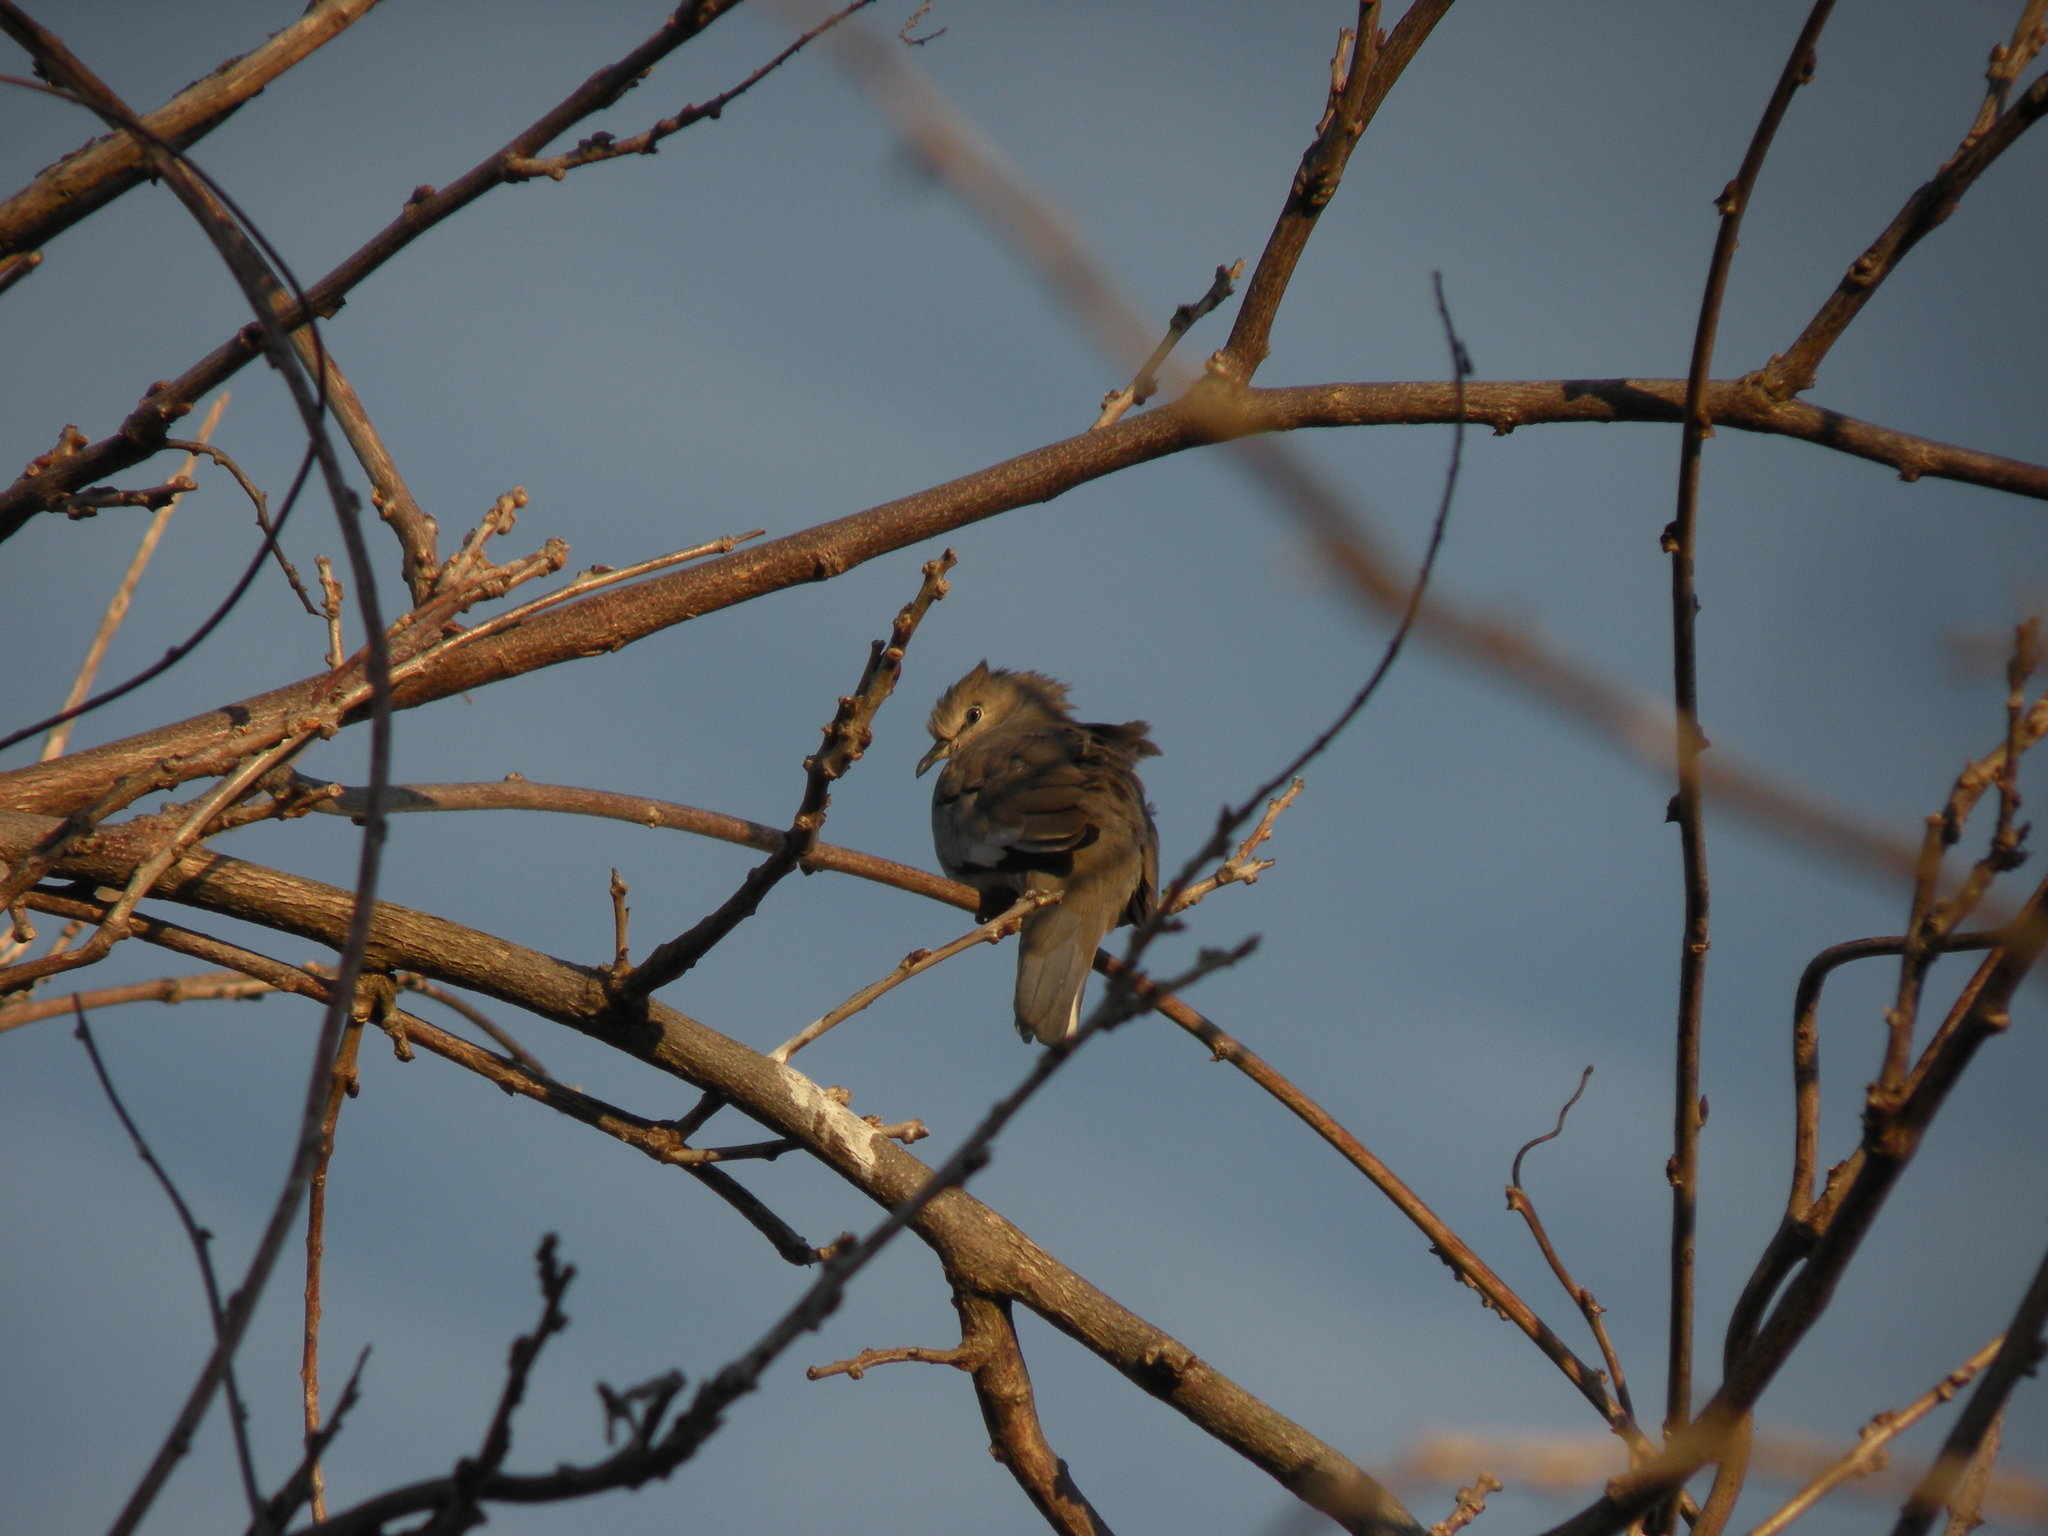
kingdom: Animalia
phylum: Chordata
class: Aves
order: Columbiformes
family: Columbidae
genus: Columbina
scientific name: Columbina picui
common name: Picui ground dove
